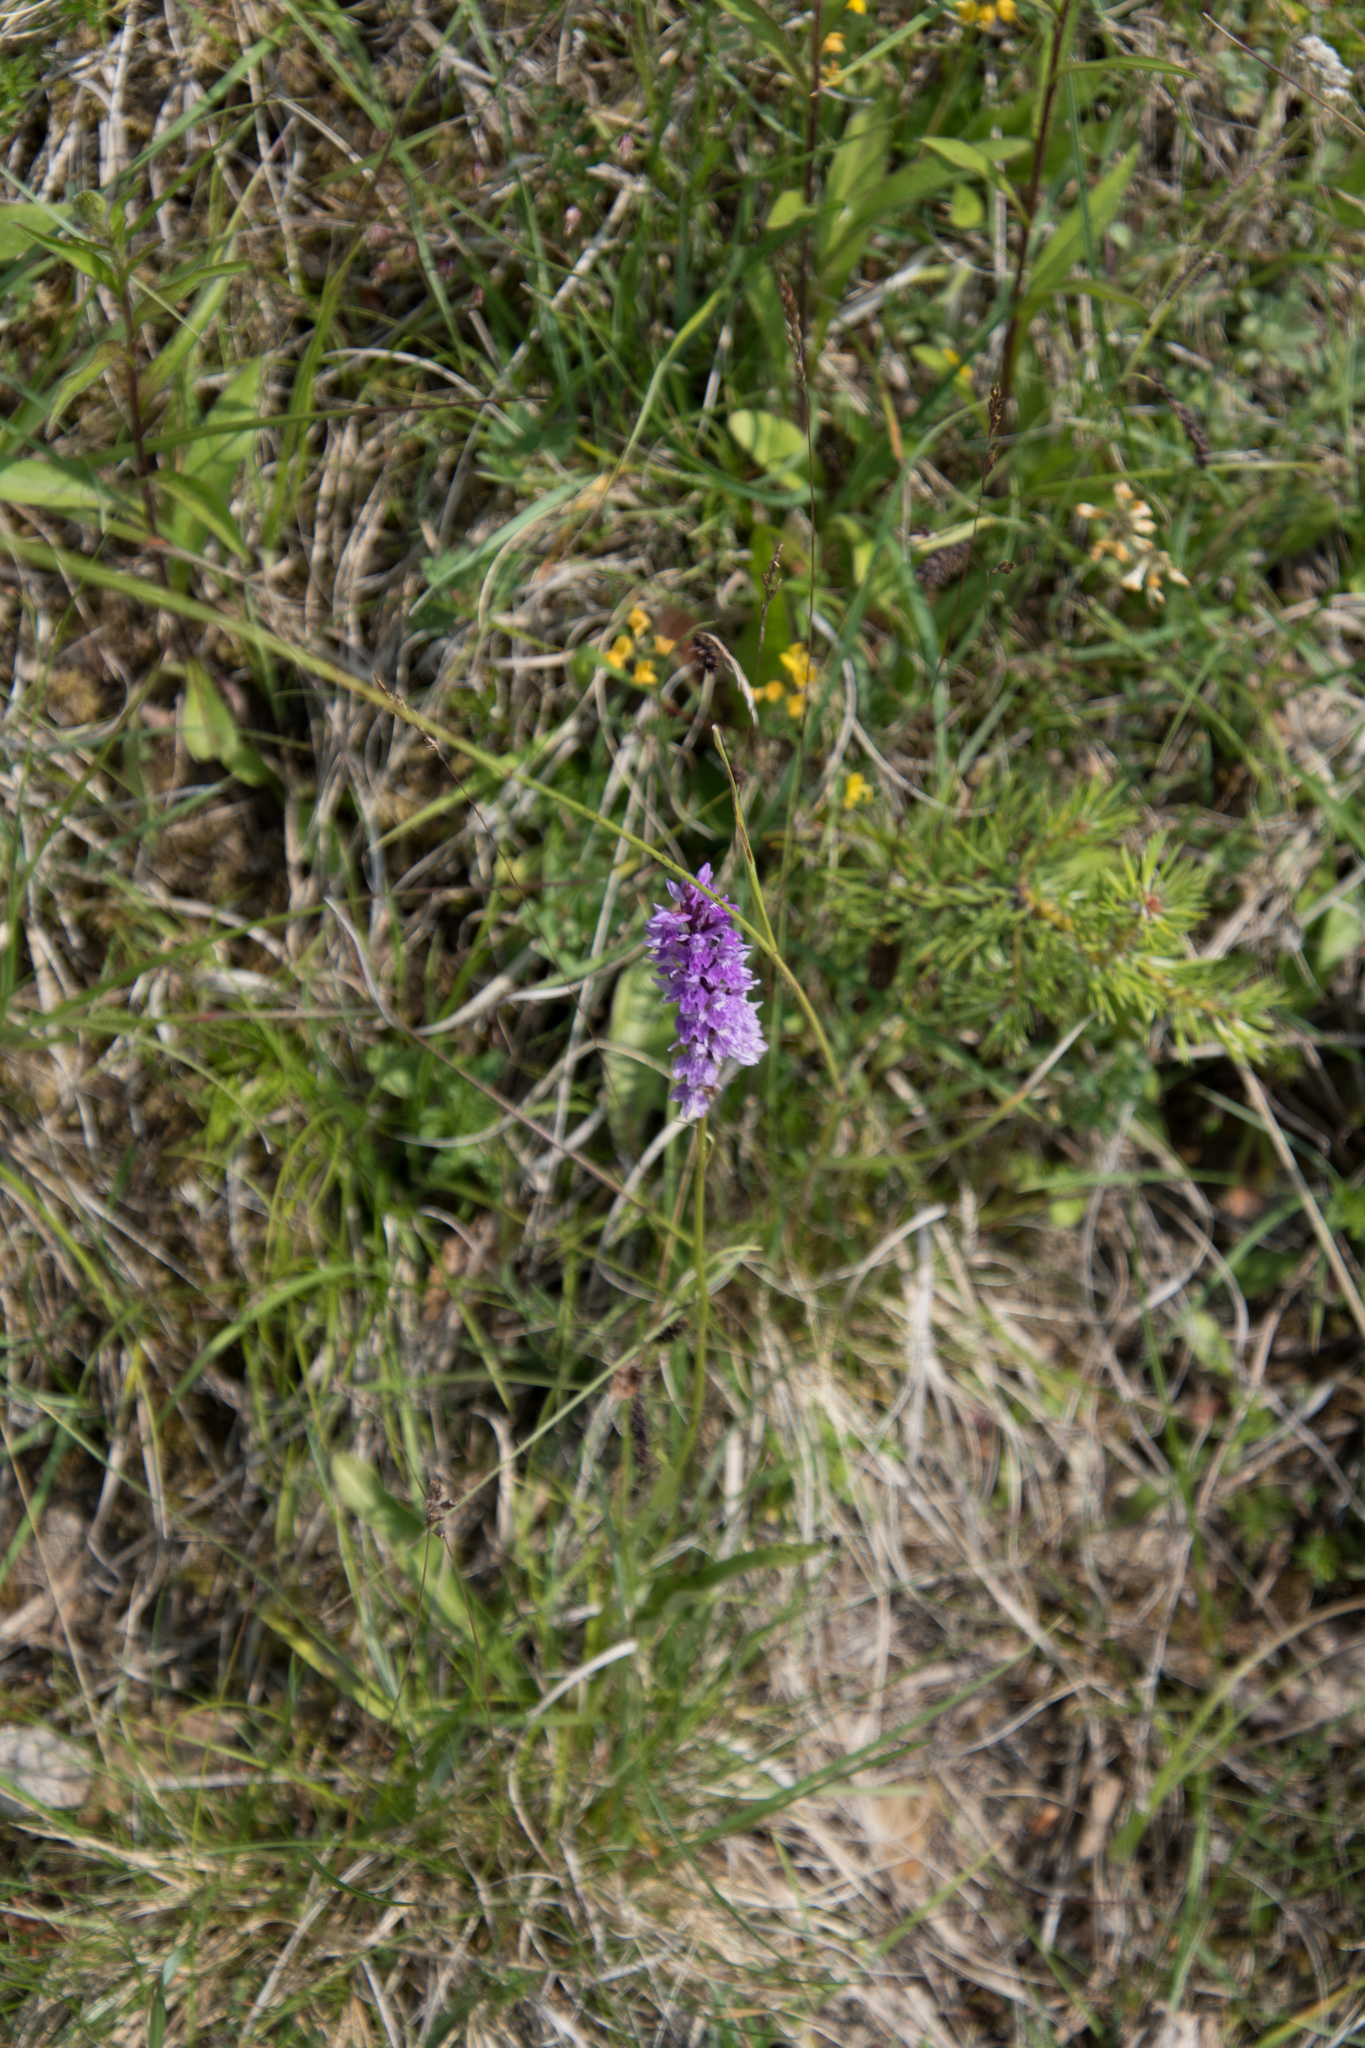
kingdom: Plantae
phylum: Tracheophyta
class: Liliopsida
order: Asparagales
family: Orchidaceae
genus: Dactylorhiza
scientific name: Dactylorhiza maculata
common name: Heath spotted-orchid
